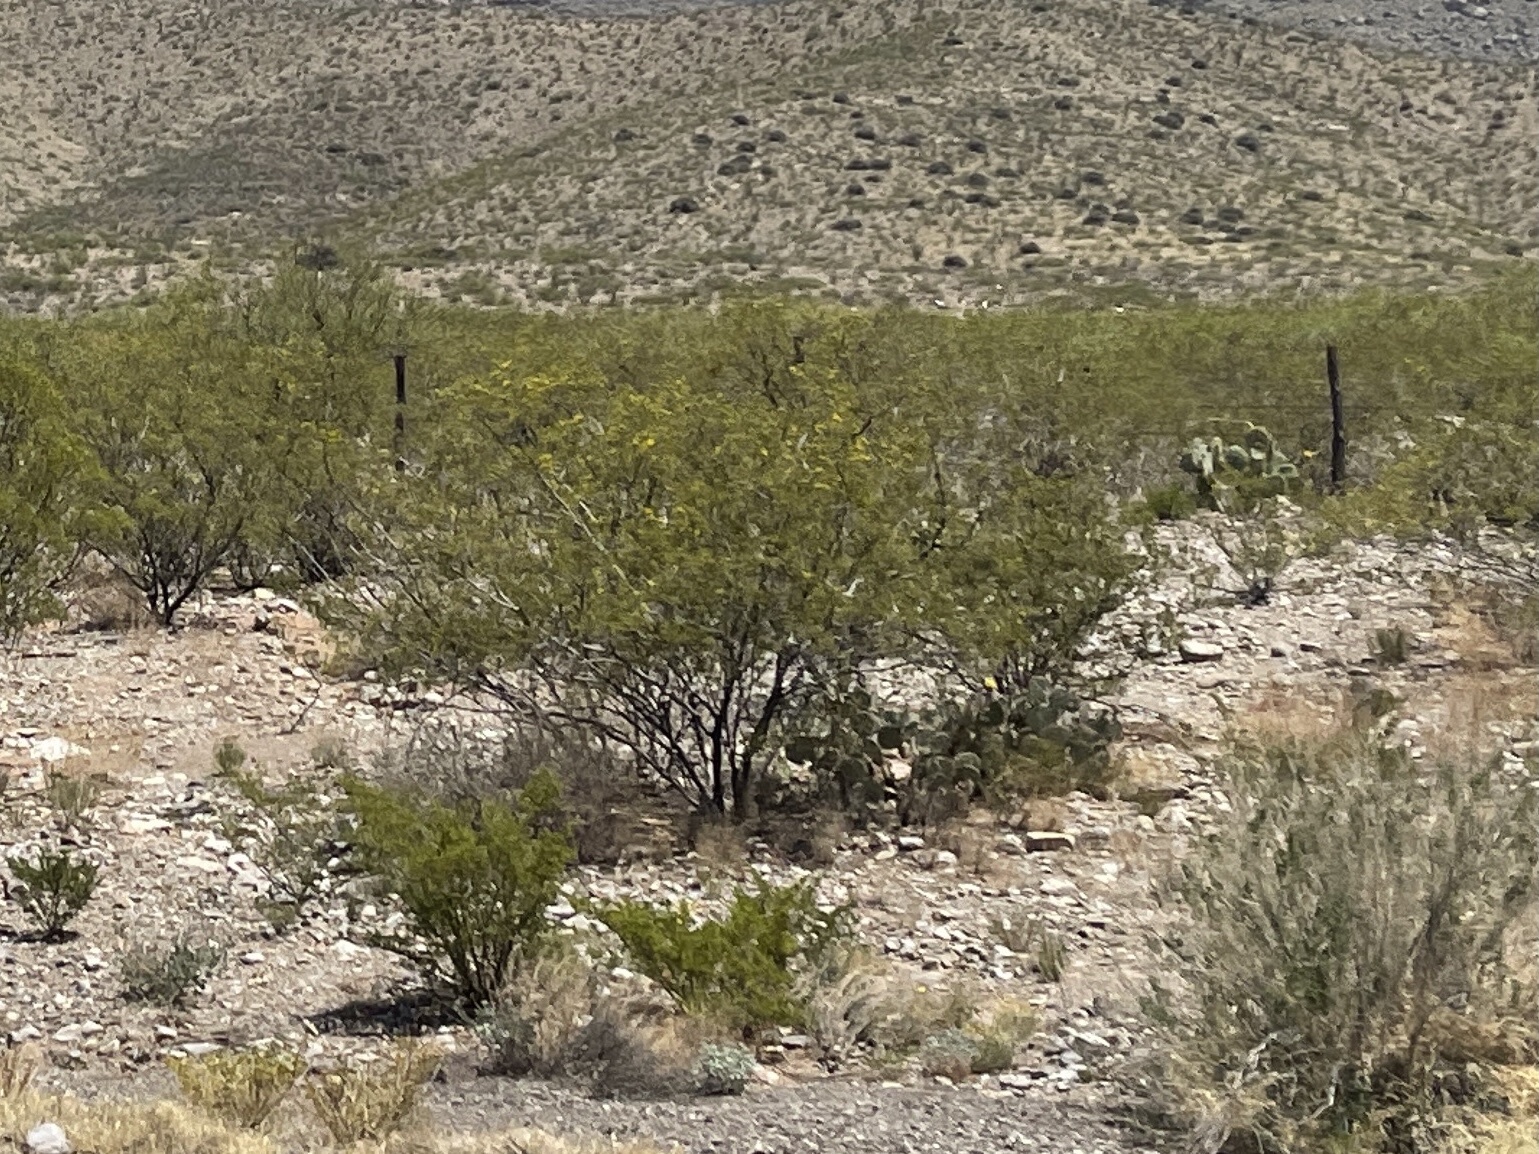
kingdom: Plantae
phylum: Tracheophyta
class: Magnoliopsida
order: Zygophyllales
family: Zygophyllaceae
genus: Larrea
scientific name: Larrea tridentata
